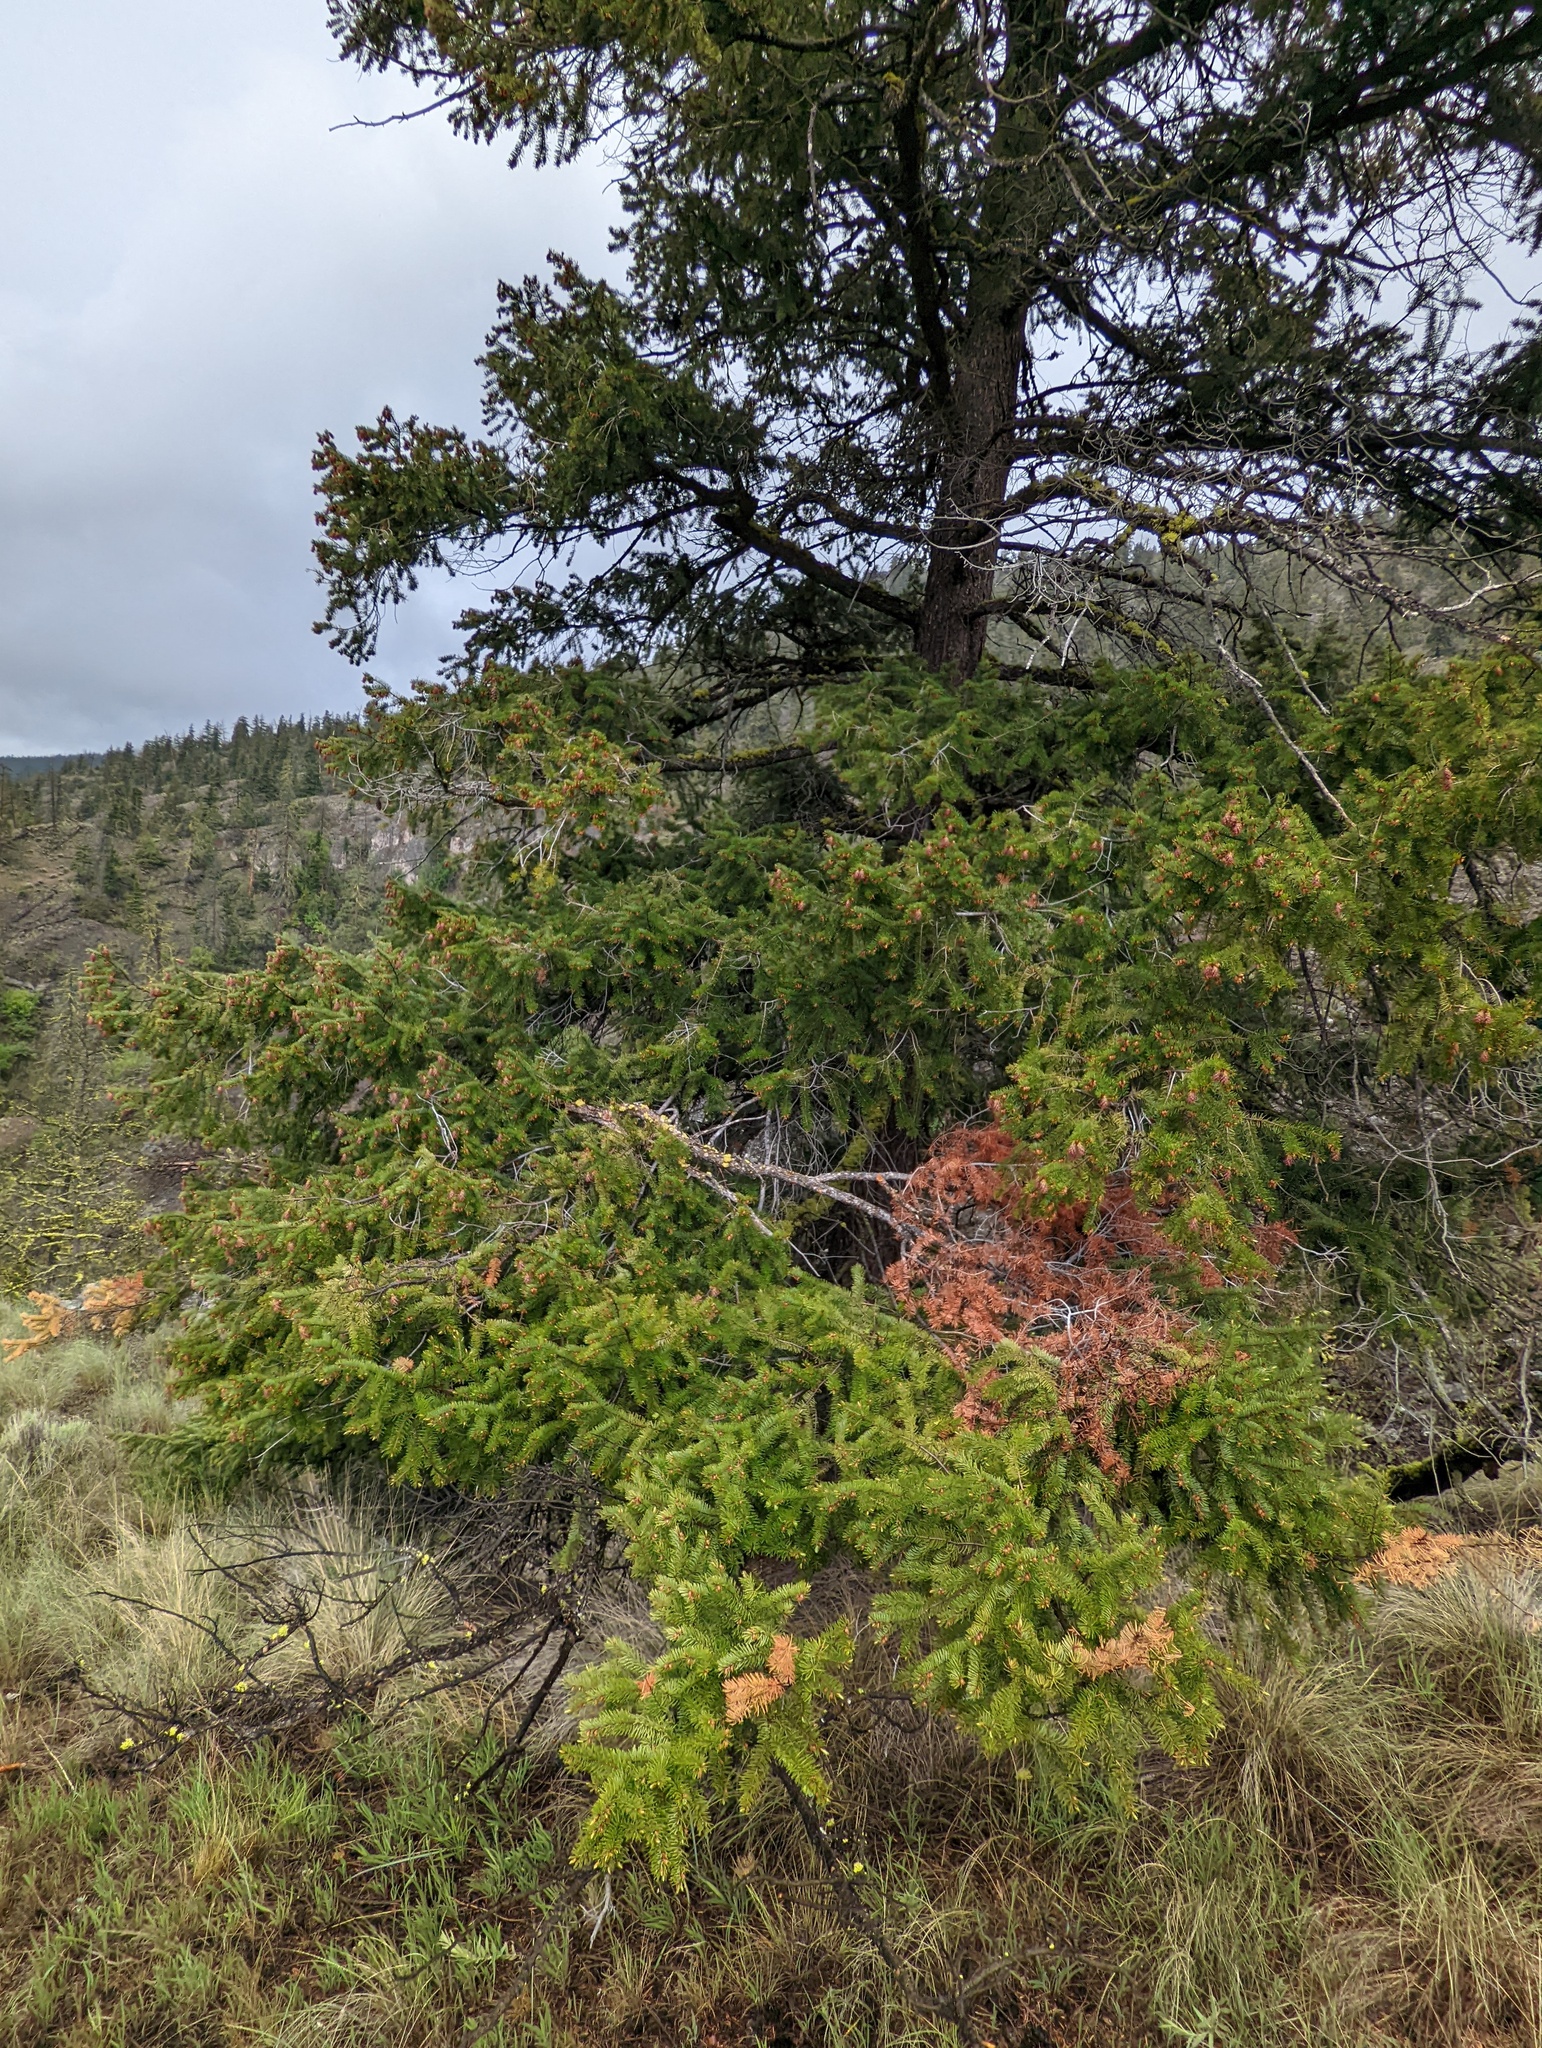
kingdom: Plantae
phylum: Tracheophyta
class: Pinopsida
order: Pinales
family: Pinaceae
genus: Pseudotsuga
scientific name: Pseudotsuga menziesii
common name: Douglas fir
